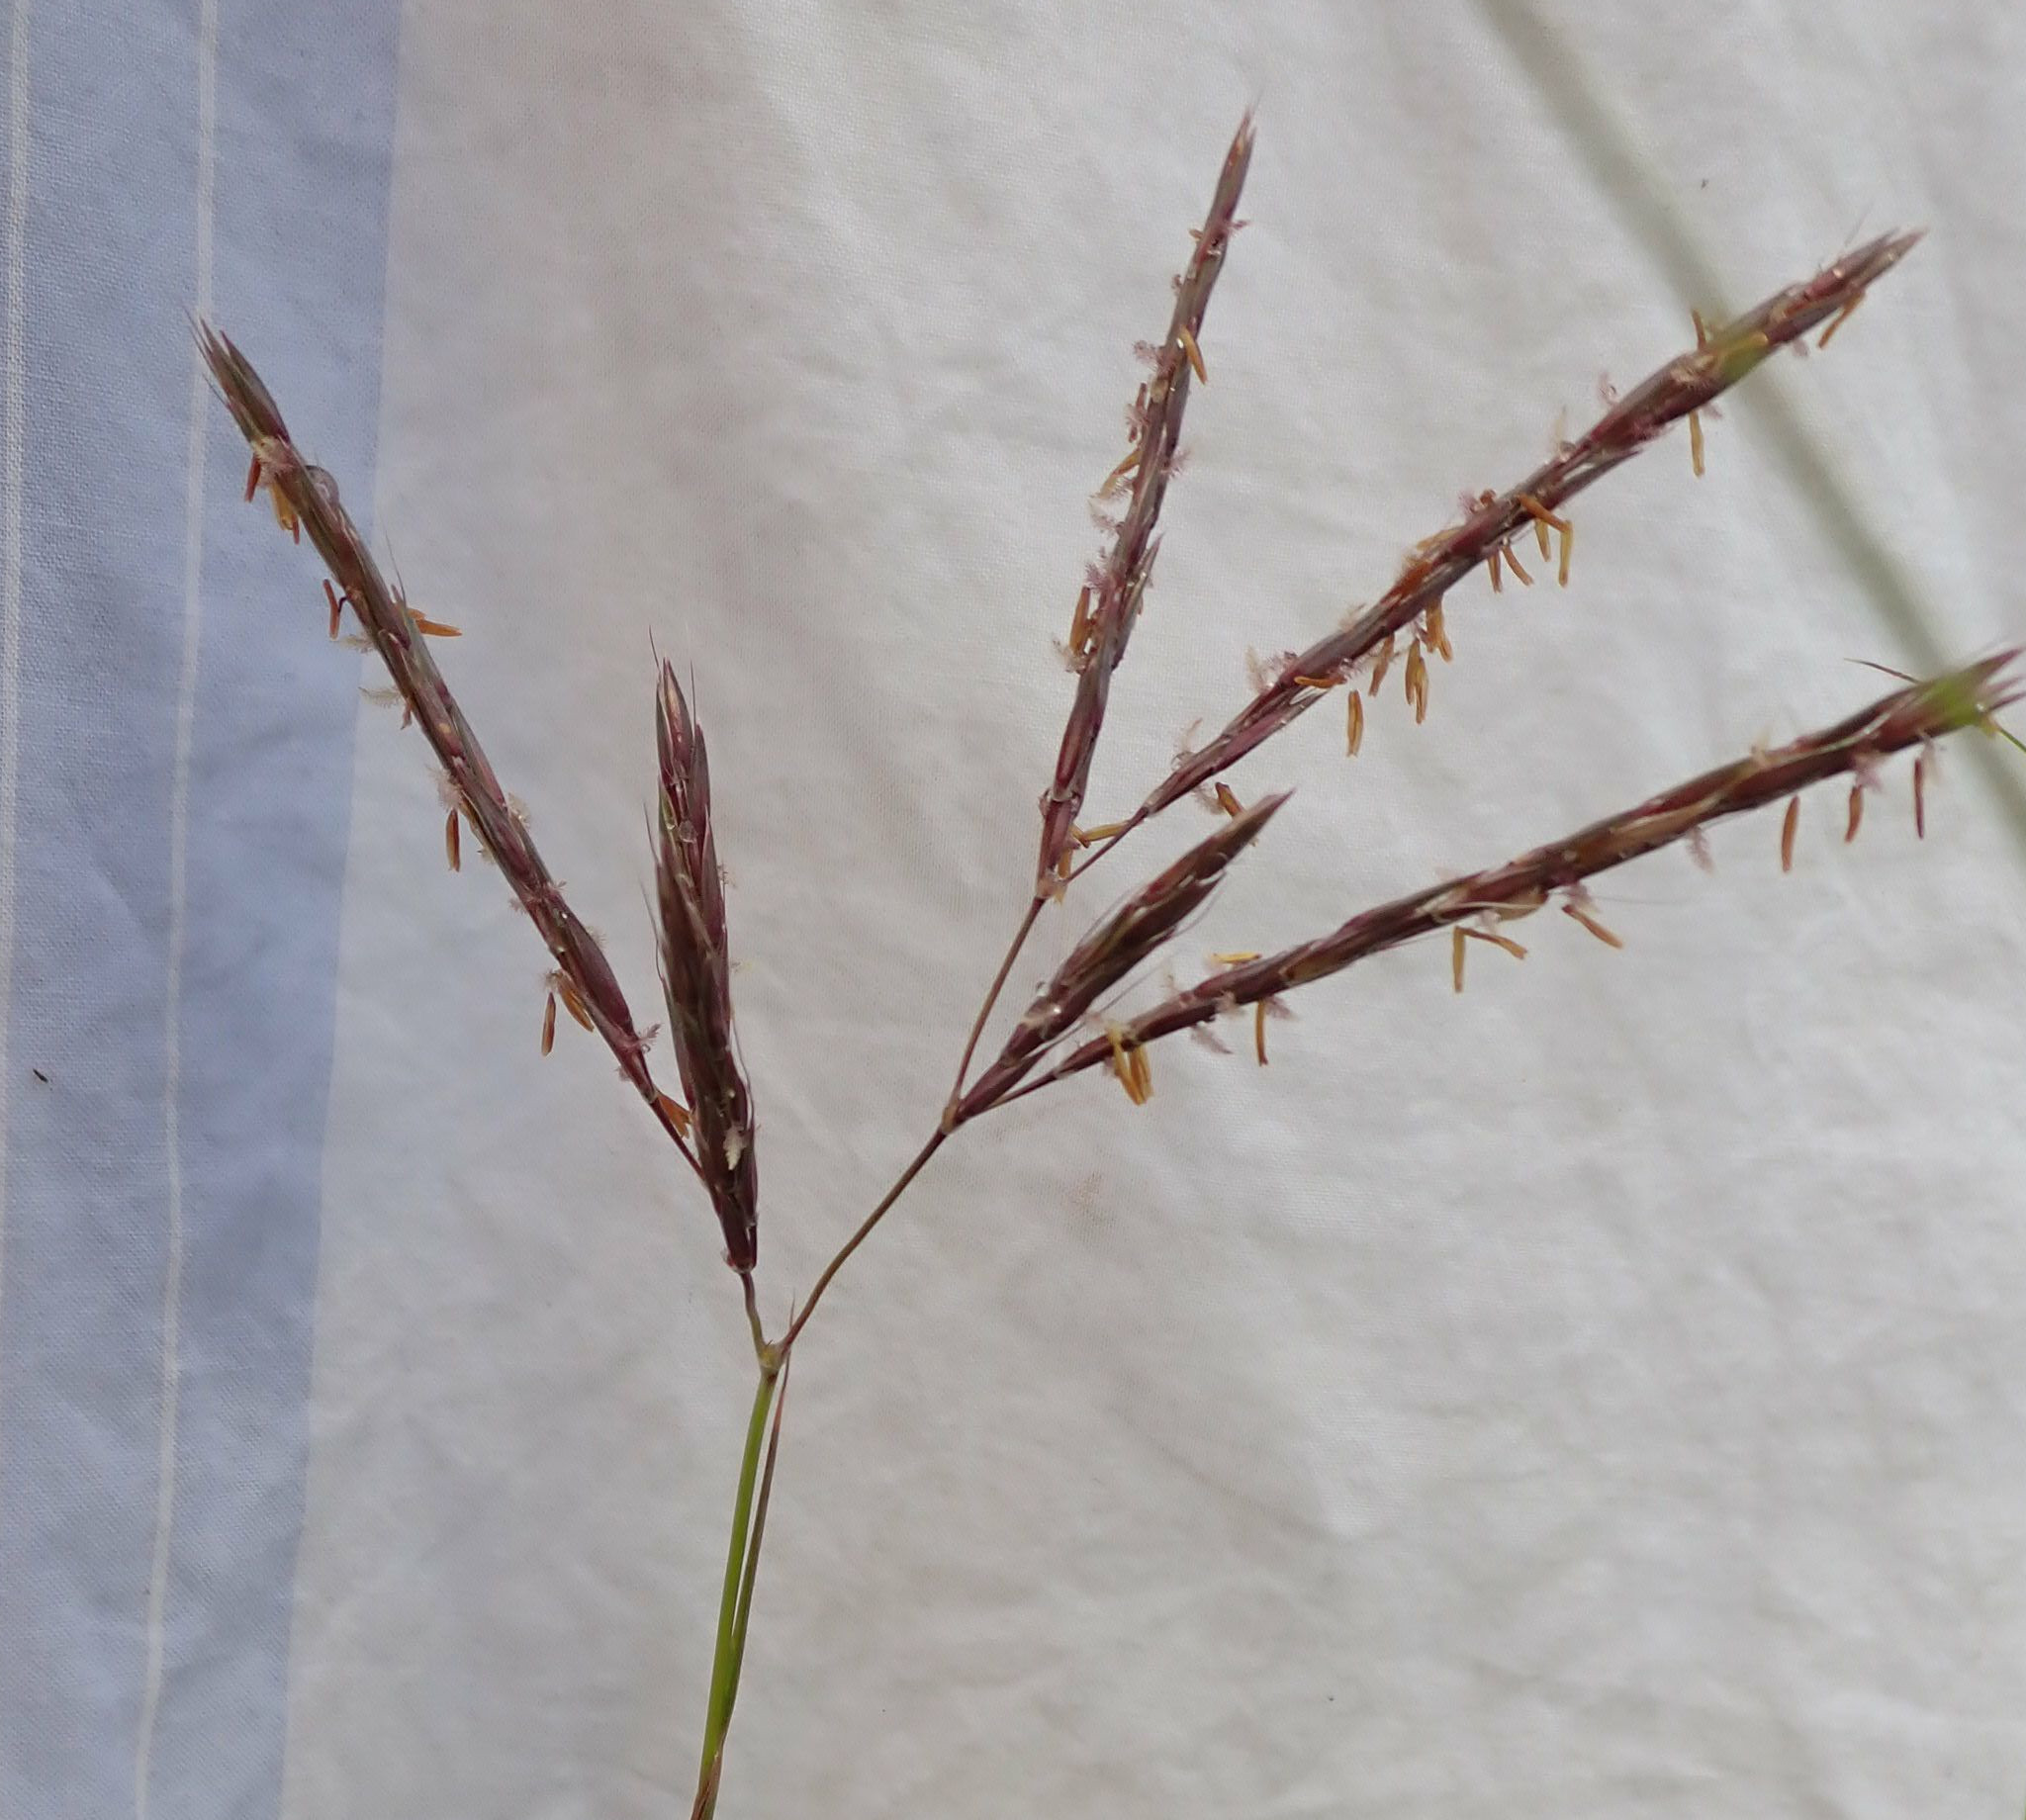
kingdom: Plantae
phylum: Tracheophyta
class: Liliopsida
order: Poales
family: Poaceae
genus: Andropogon
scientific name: Andropogon gerardi
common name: Big bluestem
